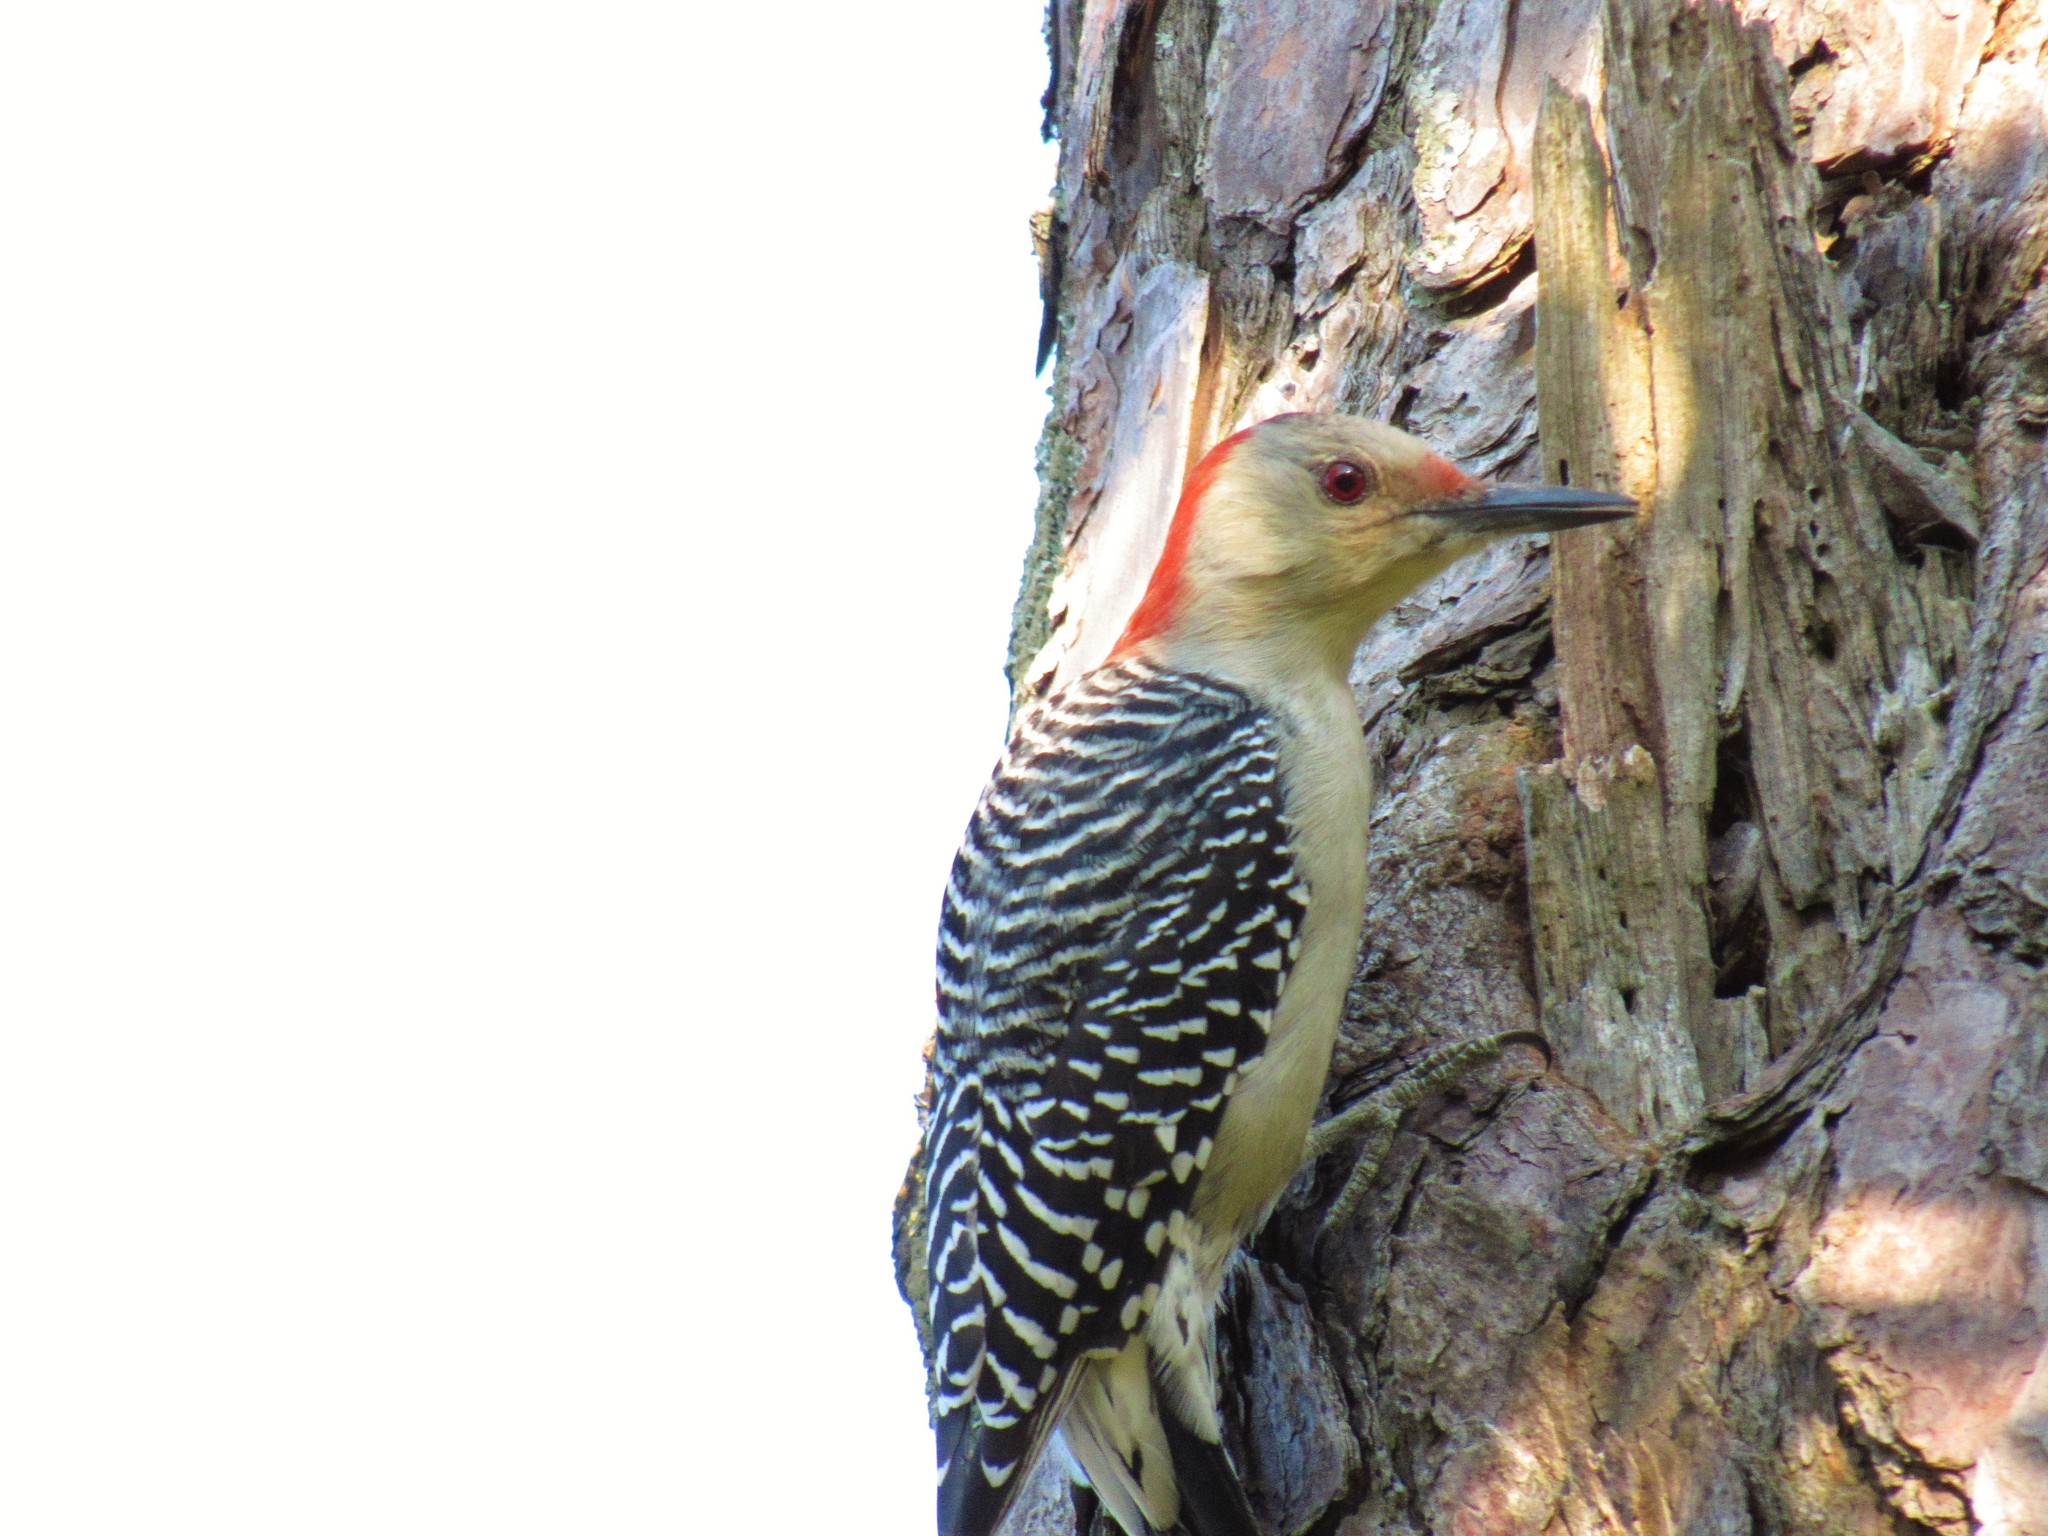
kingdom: Animalia
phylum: Chordata
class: Aves
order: Piciformes
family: Picidae
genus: Melanerpes
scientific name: Melanerpes carolinus
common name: Red-bellied woodpecker
